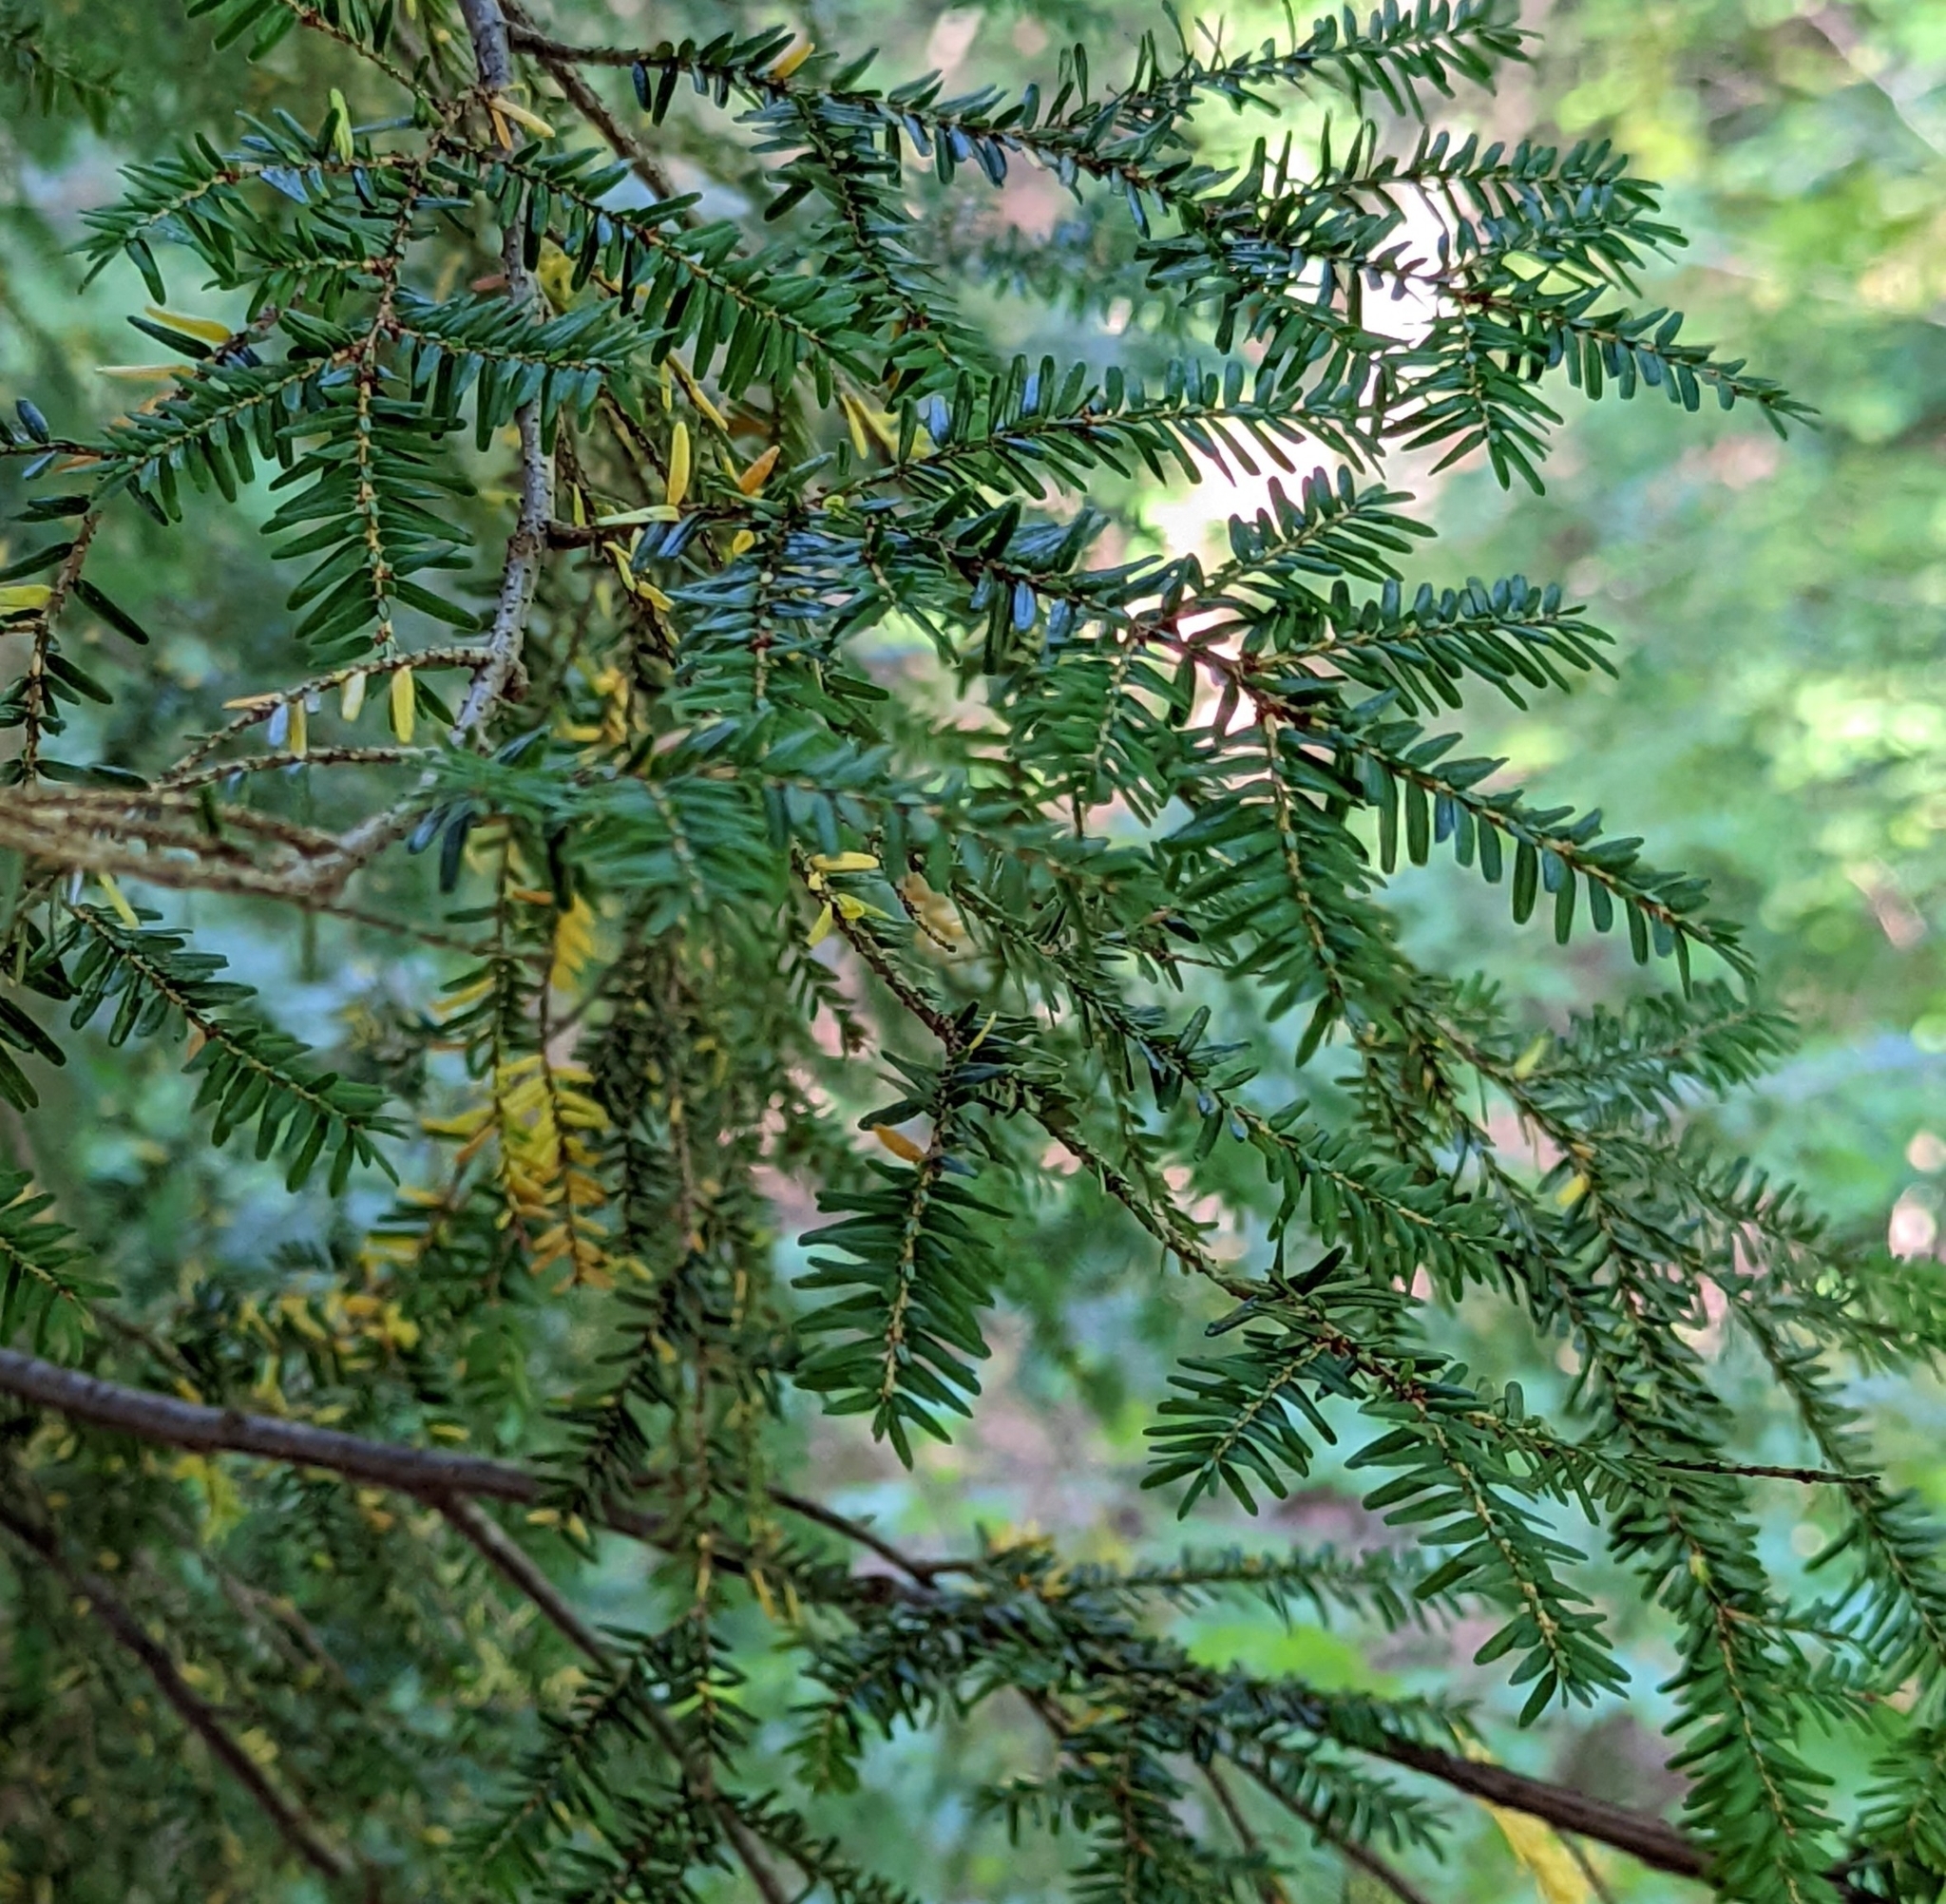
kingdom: Plantae
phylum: Tracheophyta
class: Pinopsida
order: Pinales
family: Pinaceae
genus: Tsuga
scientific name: Tsuga canadensis
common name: Eastern hemlock
